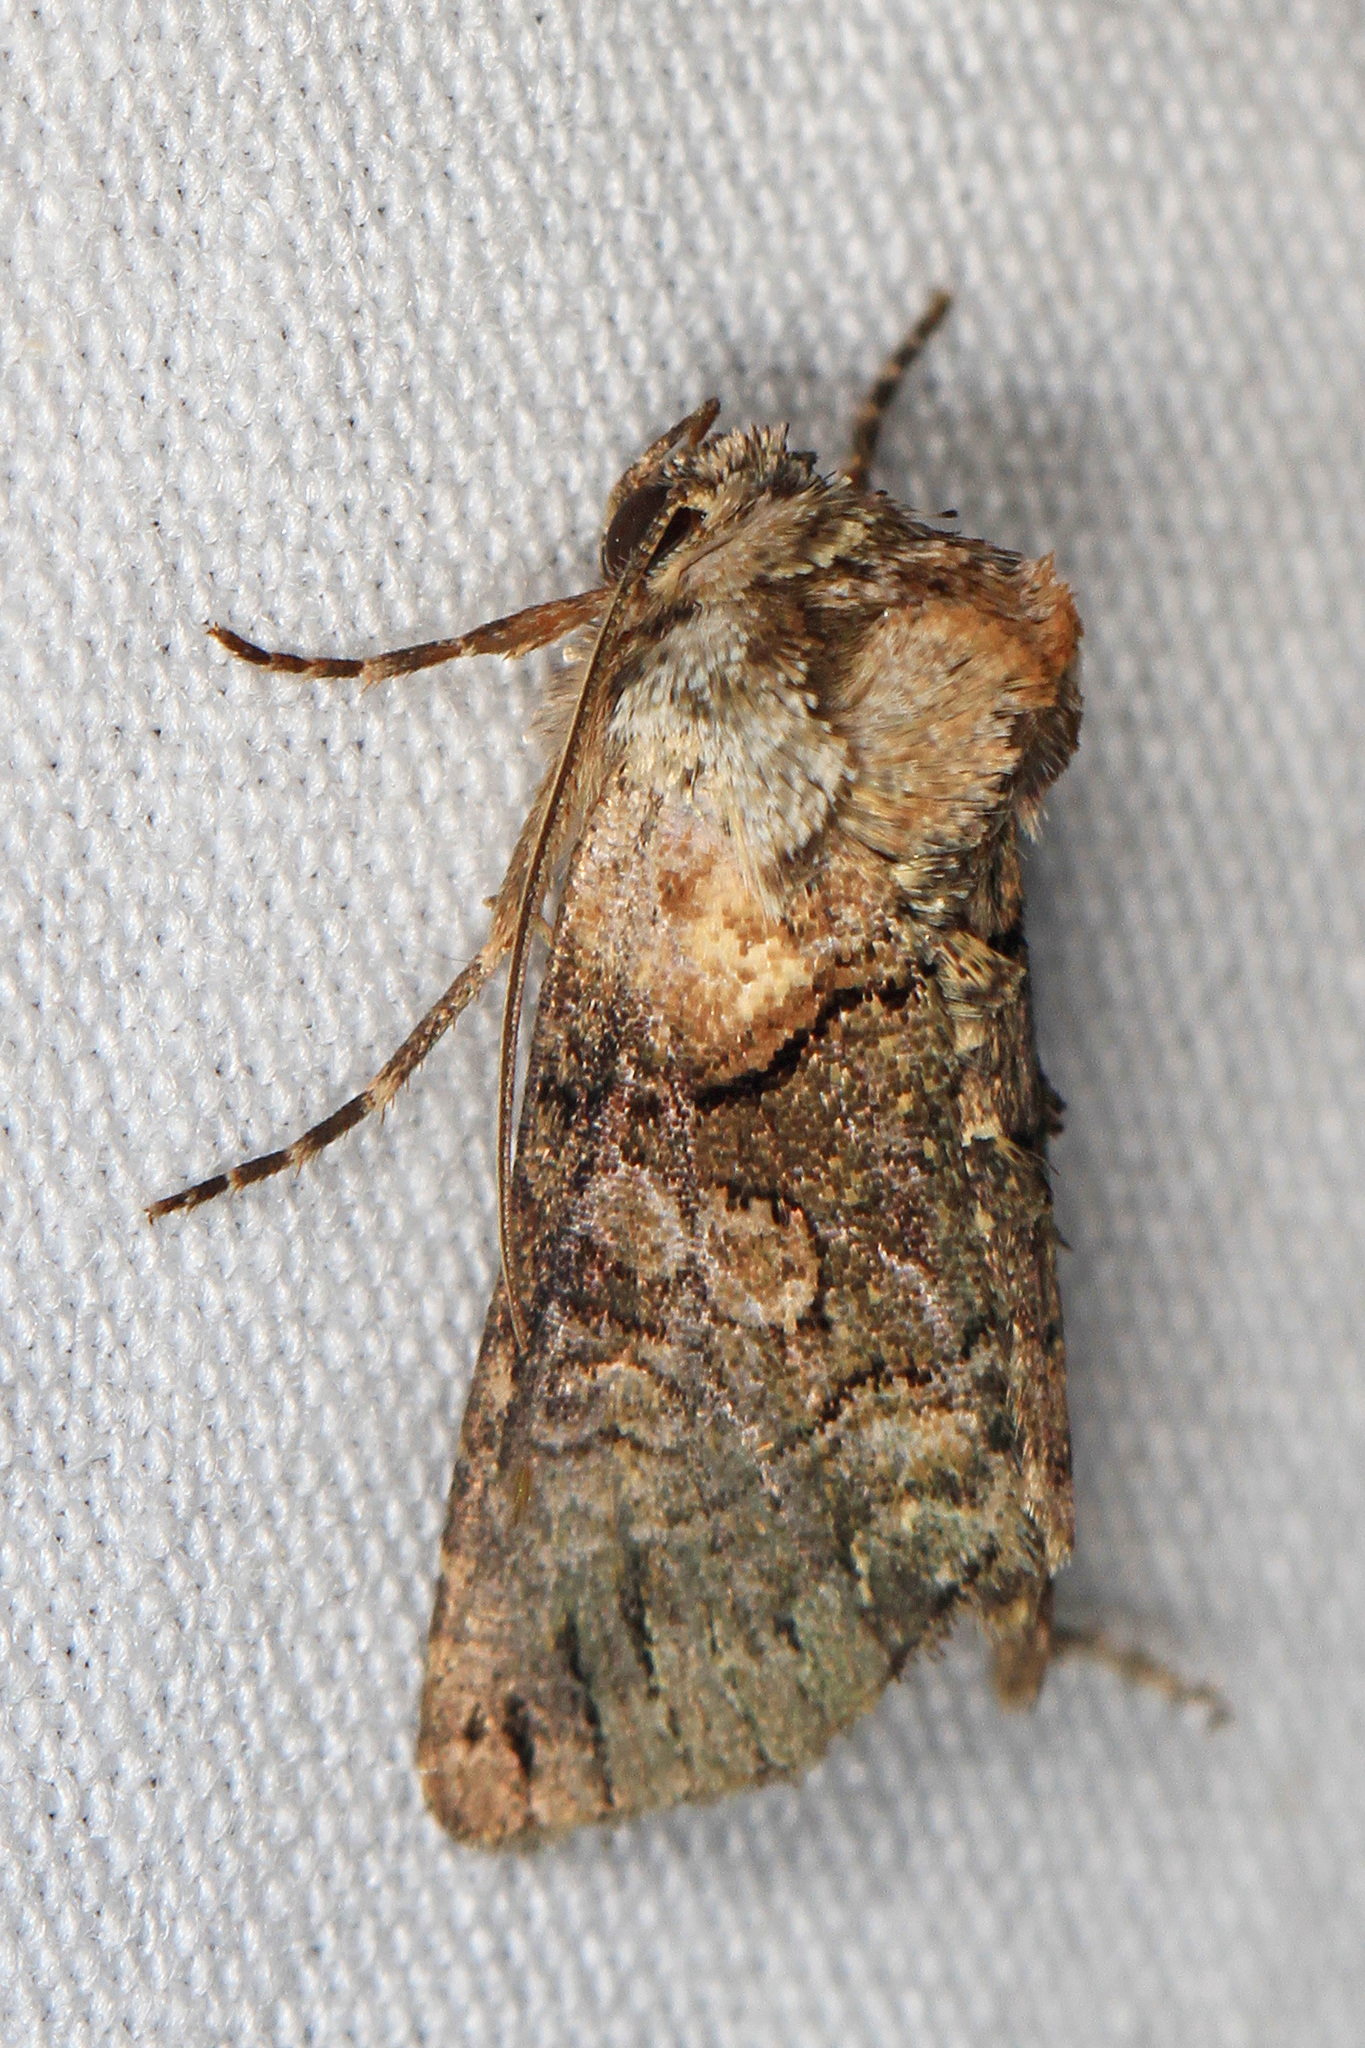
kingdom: Animalia
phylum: Arthropoda
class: Insecta
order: Lepidoptera
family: Noctuidae
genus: Abrostola
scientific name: Abrostola microvalis
